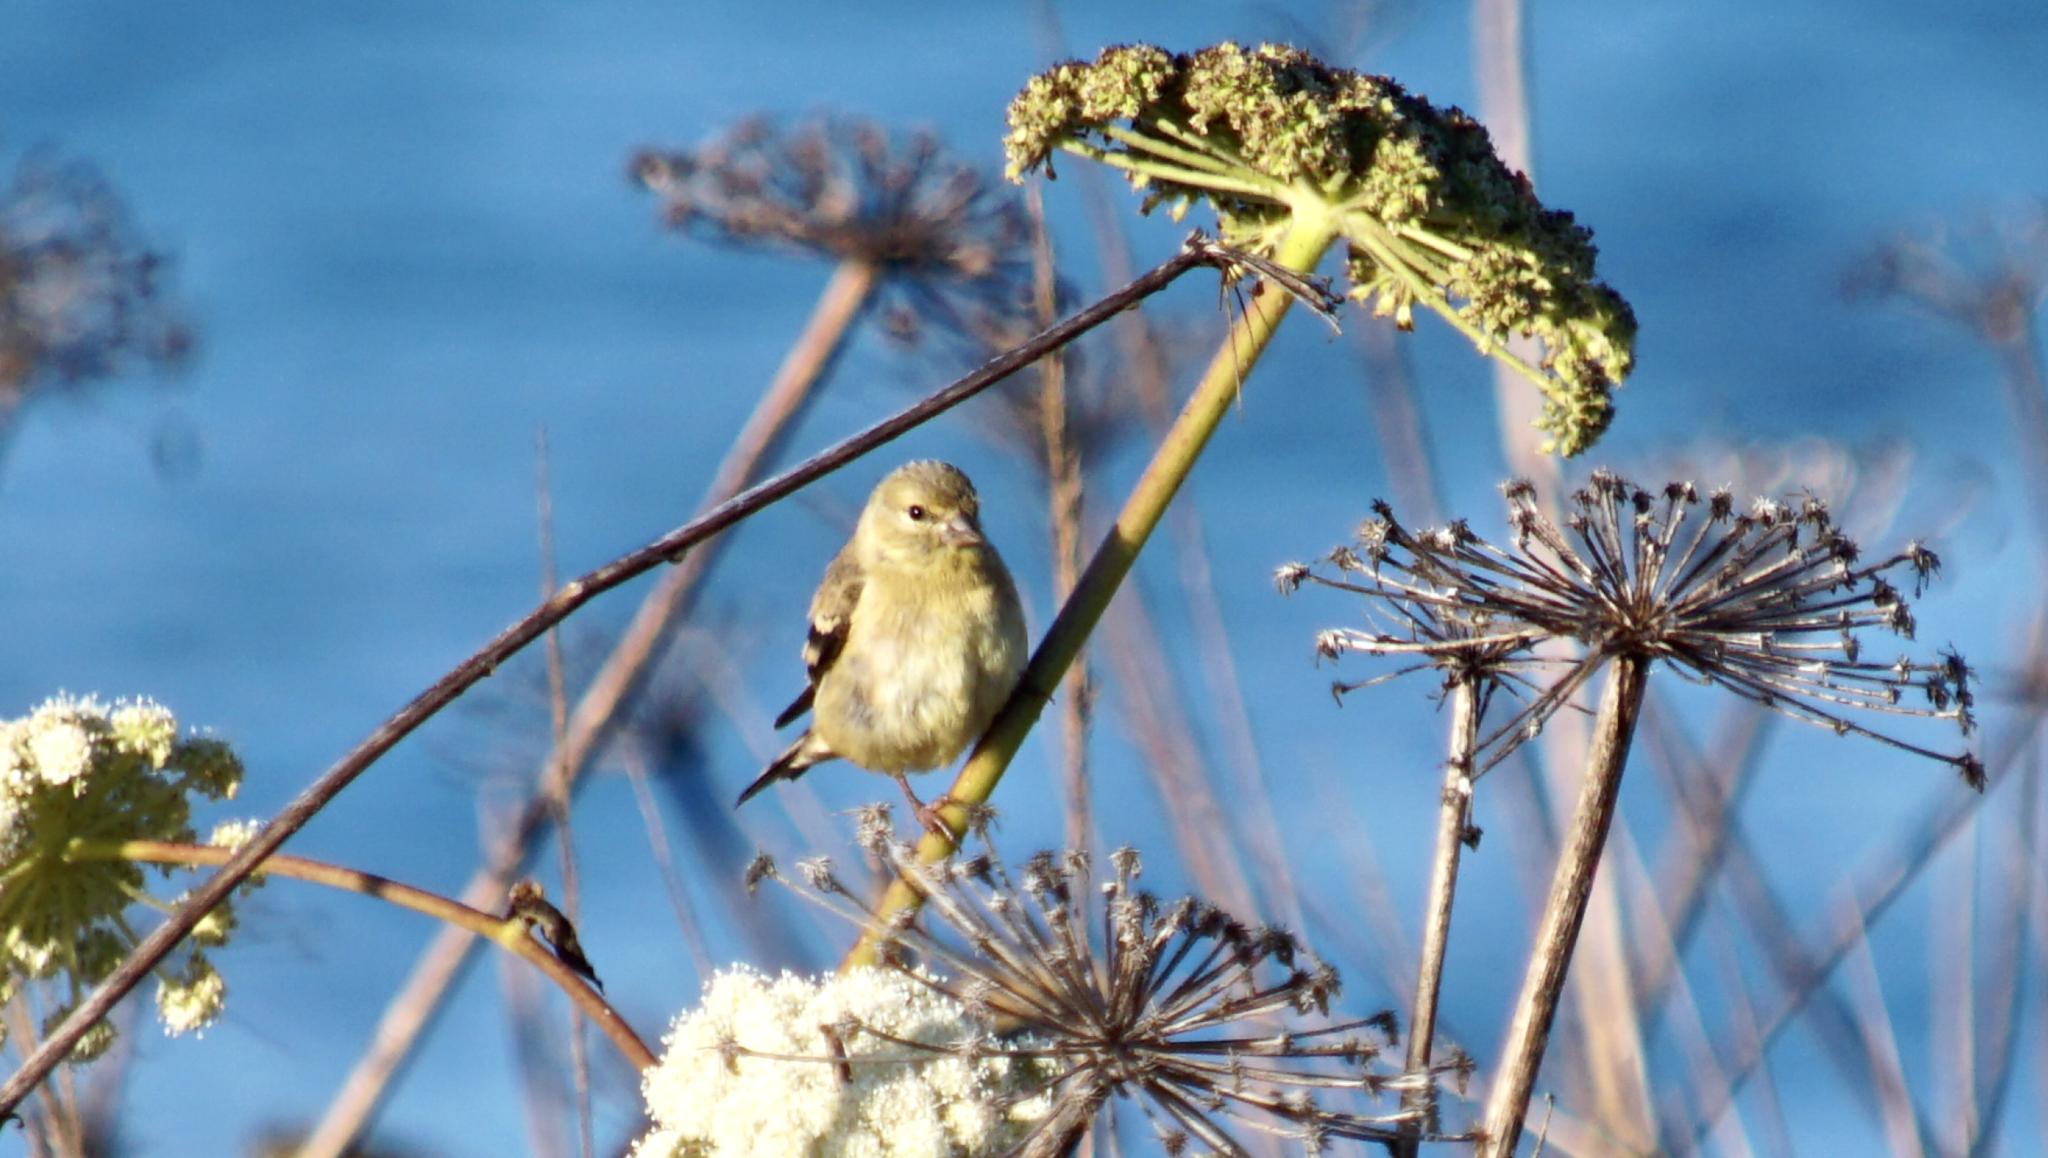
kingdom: Animalia
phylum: Chordata
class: Aves
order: Passeriformes
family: Fringillidae
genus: Spinus
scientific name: Spinus tristis
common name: American goldfinch
